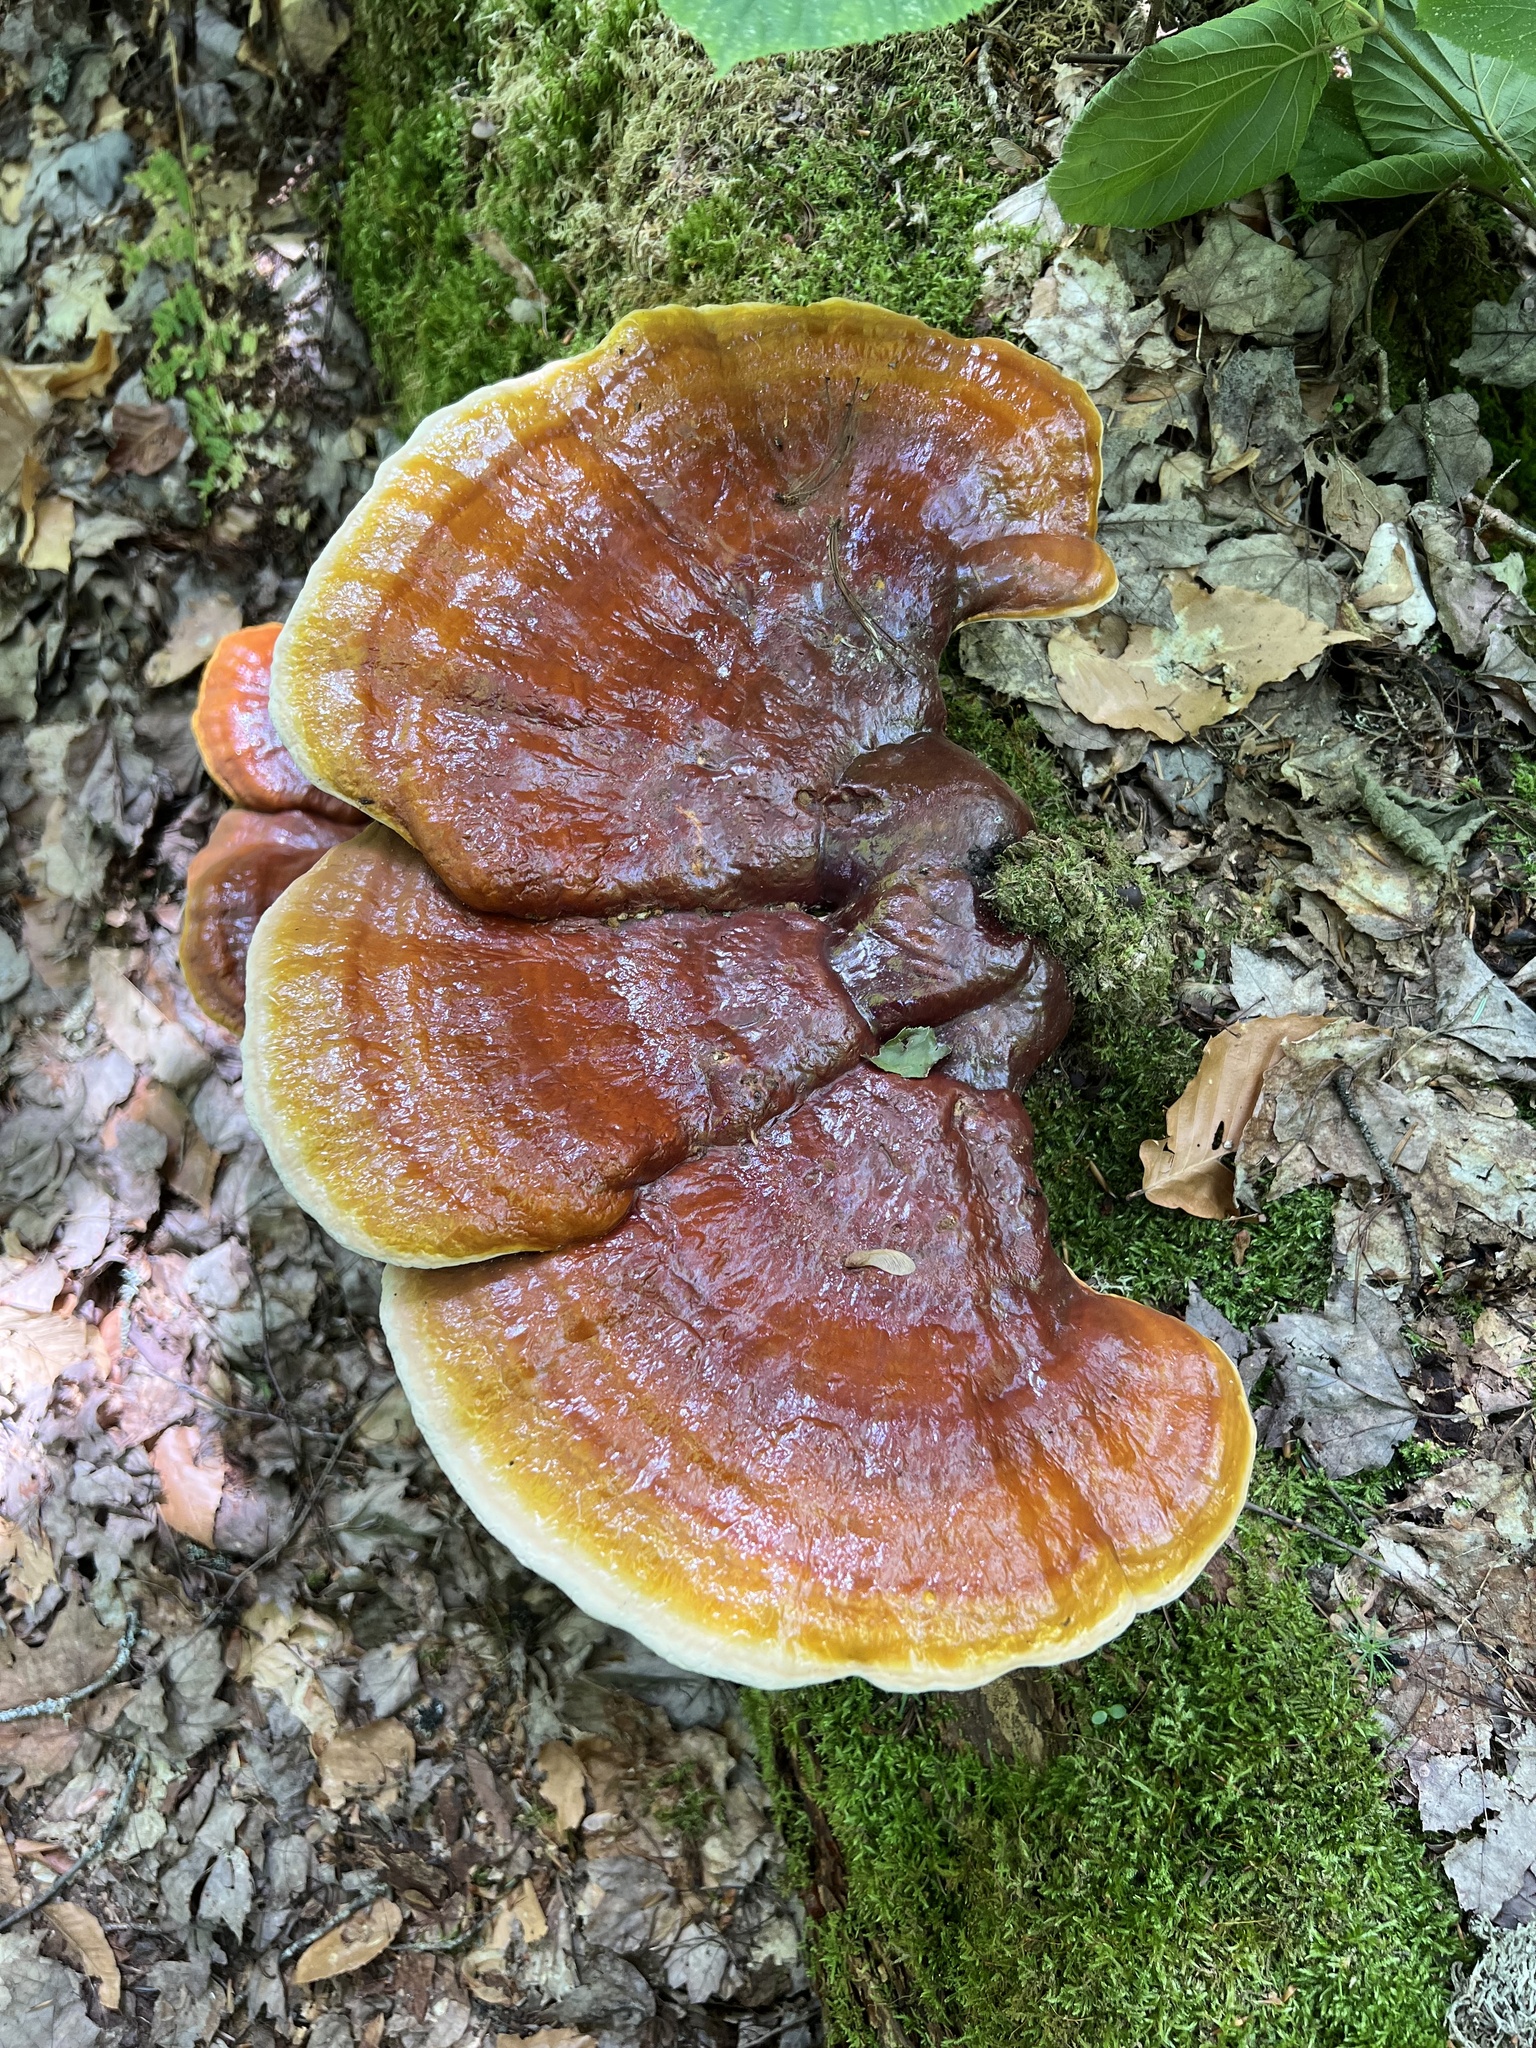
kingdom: Fungi
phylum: Basidiomycota
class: Agaricomycetes
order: Polyporales
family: Polyporaceae
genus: Ganoderma
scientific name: Ganoderma tsugae
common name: Hemlock varnish shelf
